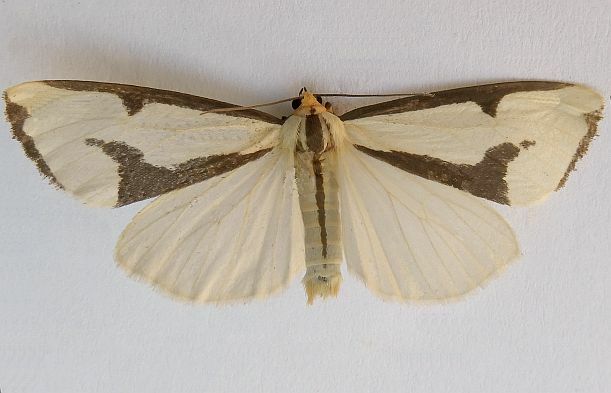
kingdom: Animalia
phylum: Arthropoda
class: Insecta
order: Lepidoptera
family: Erebidae
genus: Haploa
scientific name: Haploa lecontei
